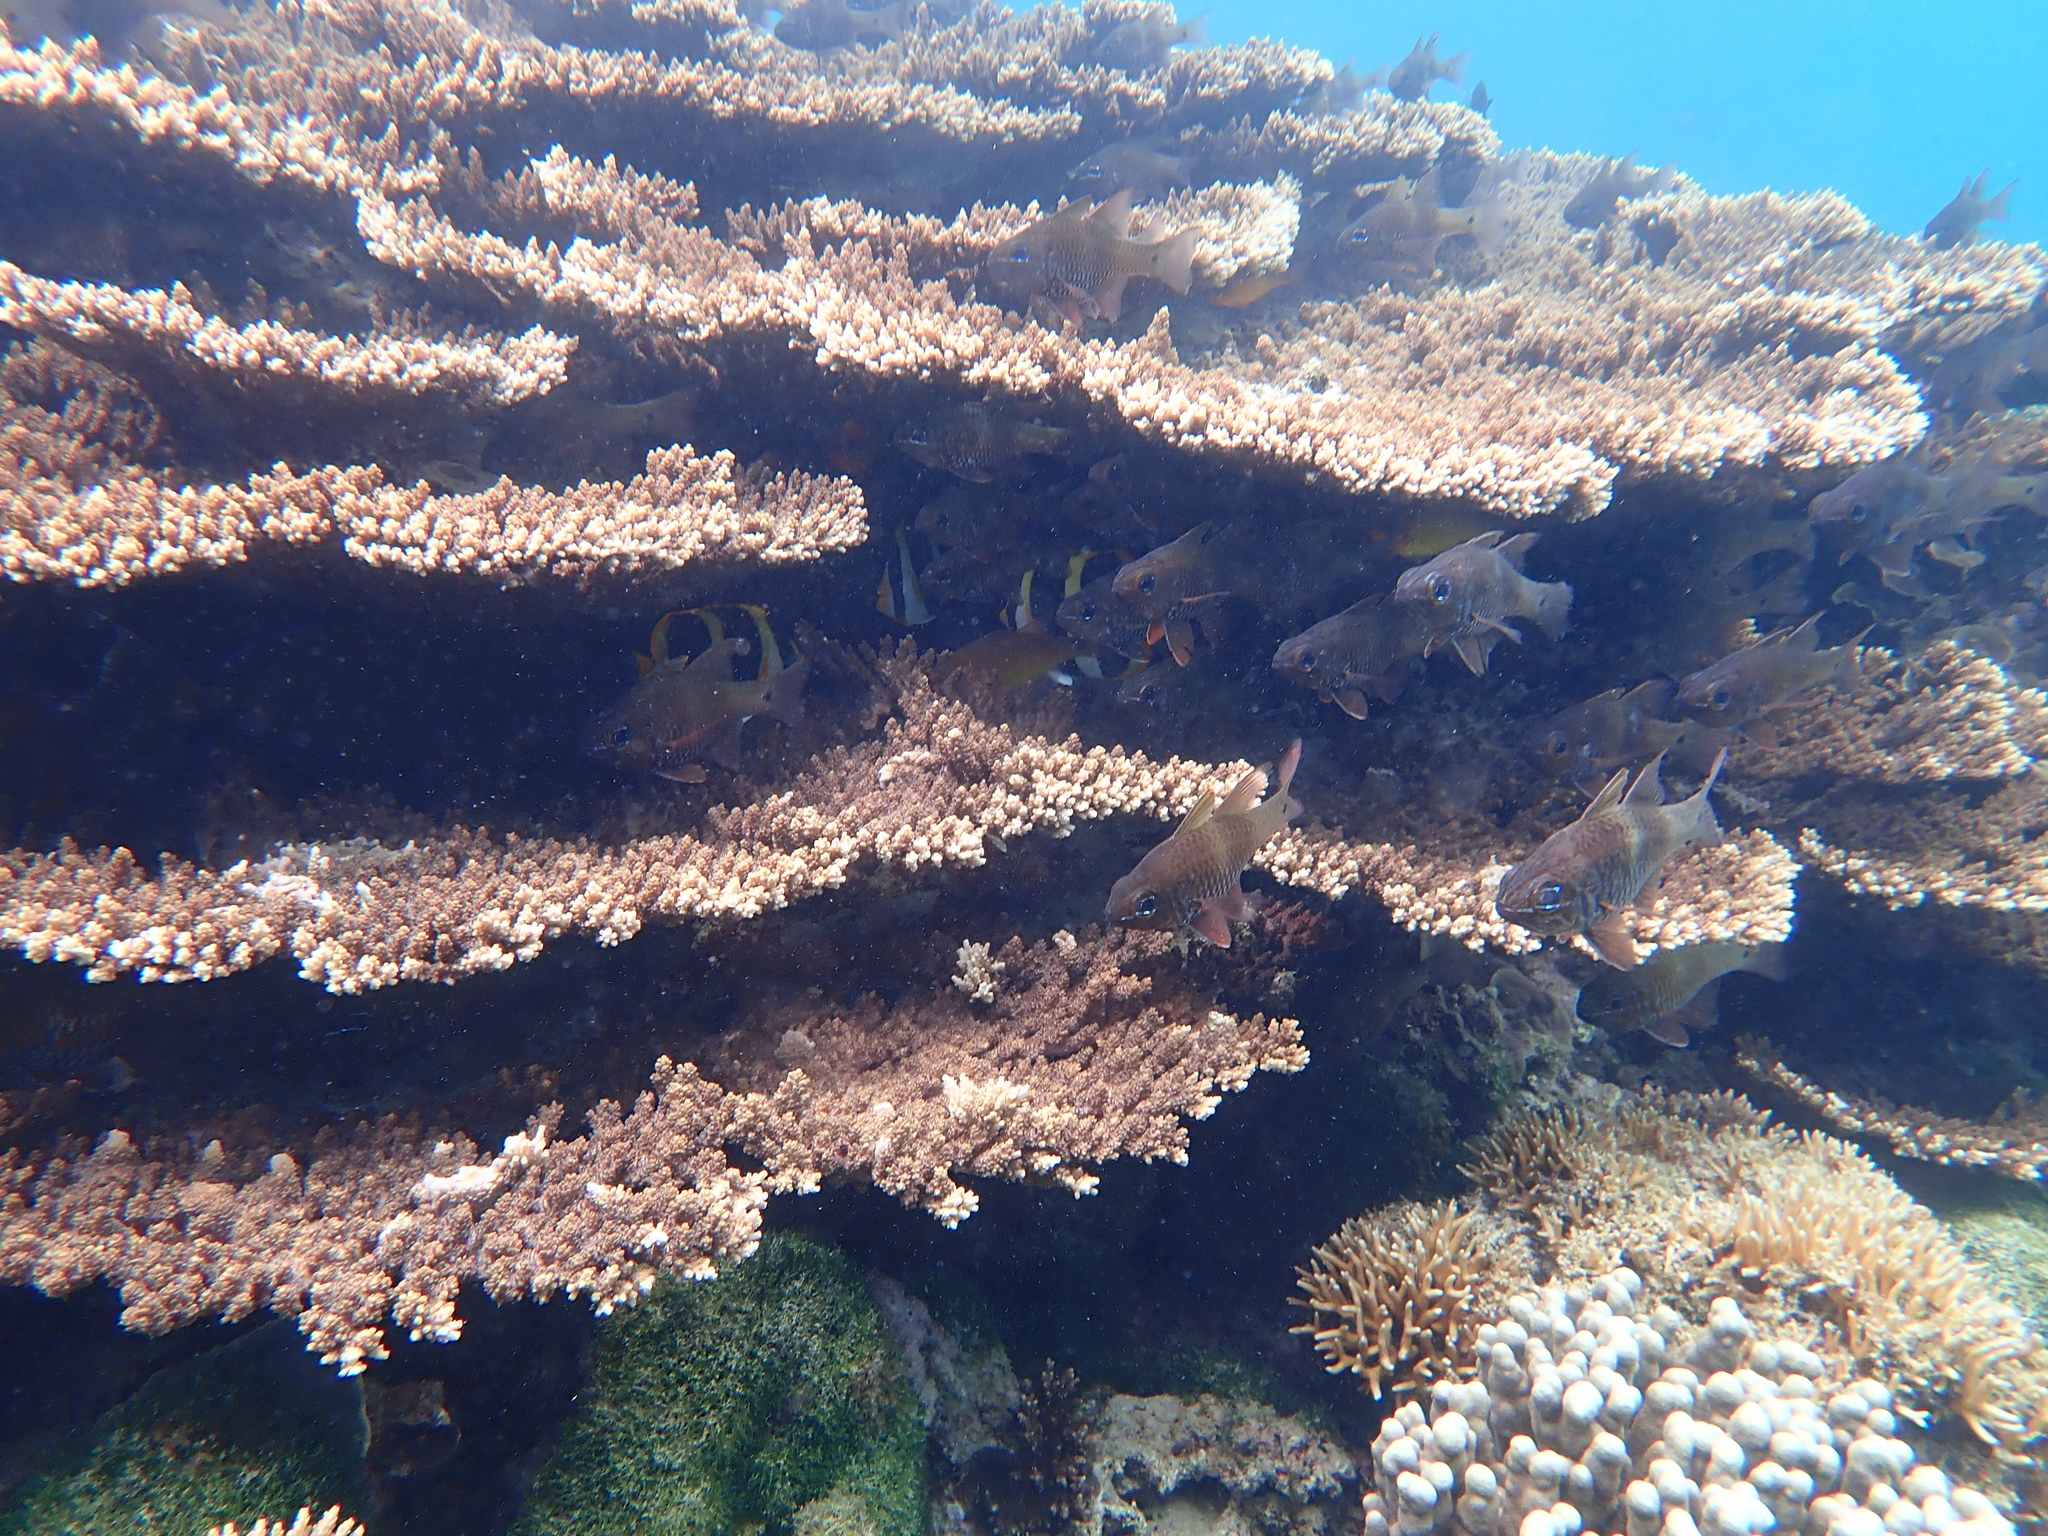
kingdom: Animalia
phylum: Chordata
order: Perciformes
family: Apogonidae
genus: Ostorhinchus
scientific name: Ostorhinchus norfolcensis
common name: Norfolk cardinalfish
